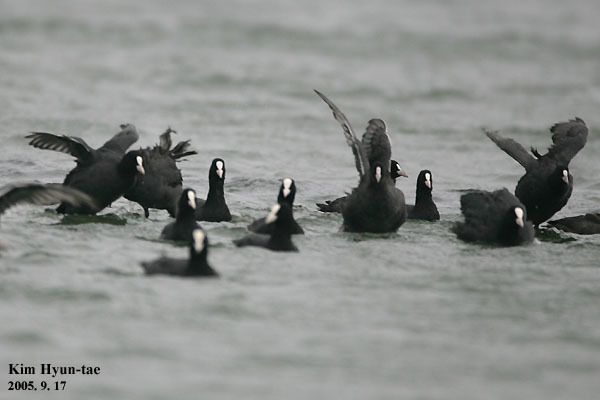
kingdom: Animalia
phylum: Chordata
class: Aves
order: Gruiformes
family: Rallidae
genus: Fulica
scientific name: Fulica atra
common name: Eurasian coot
